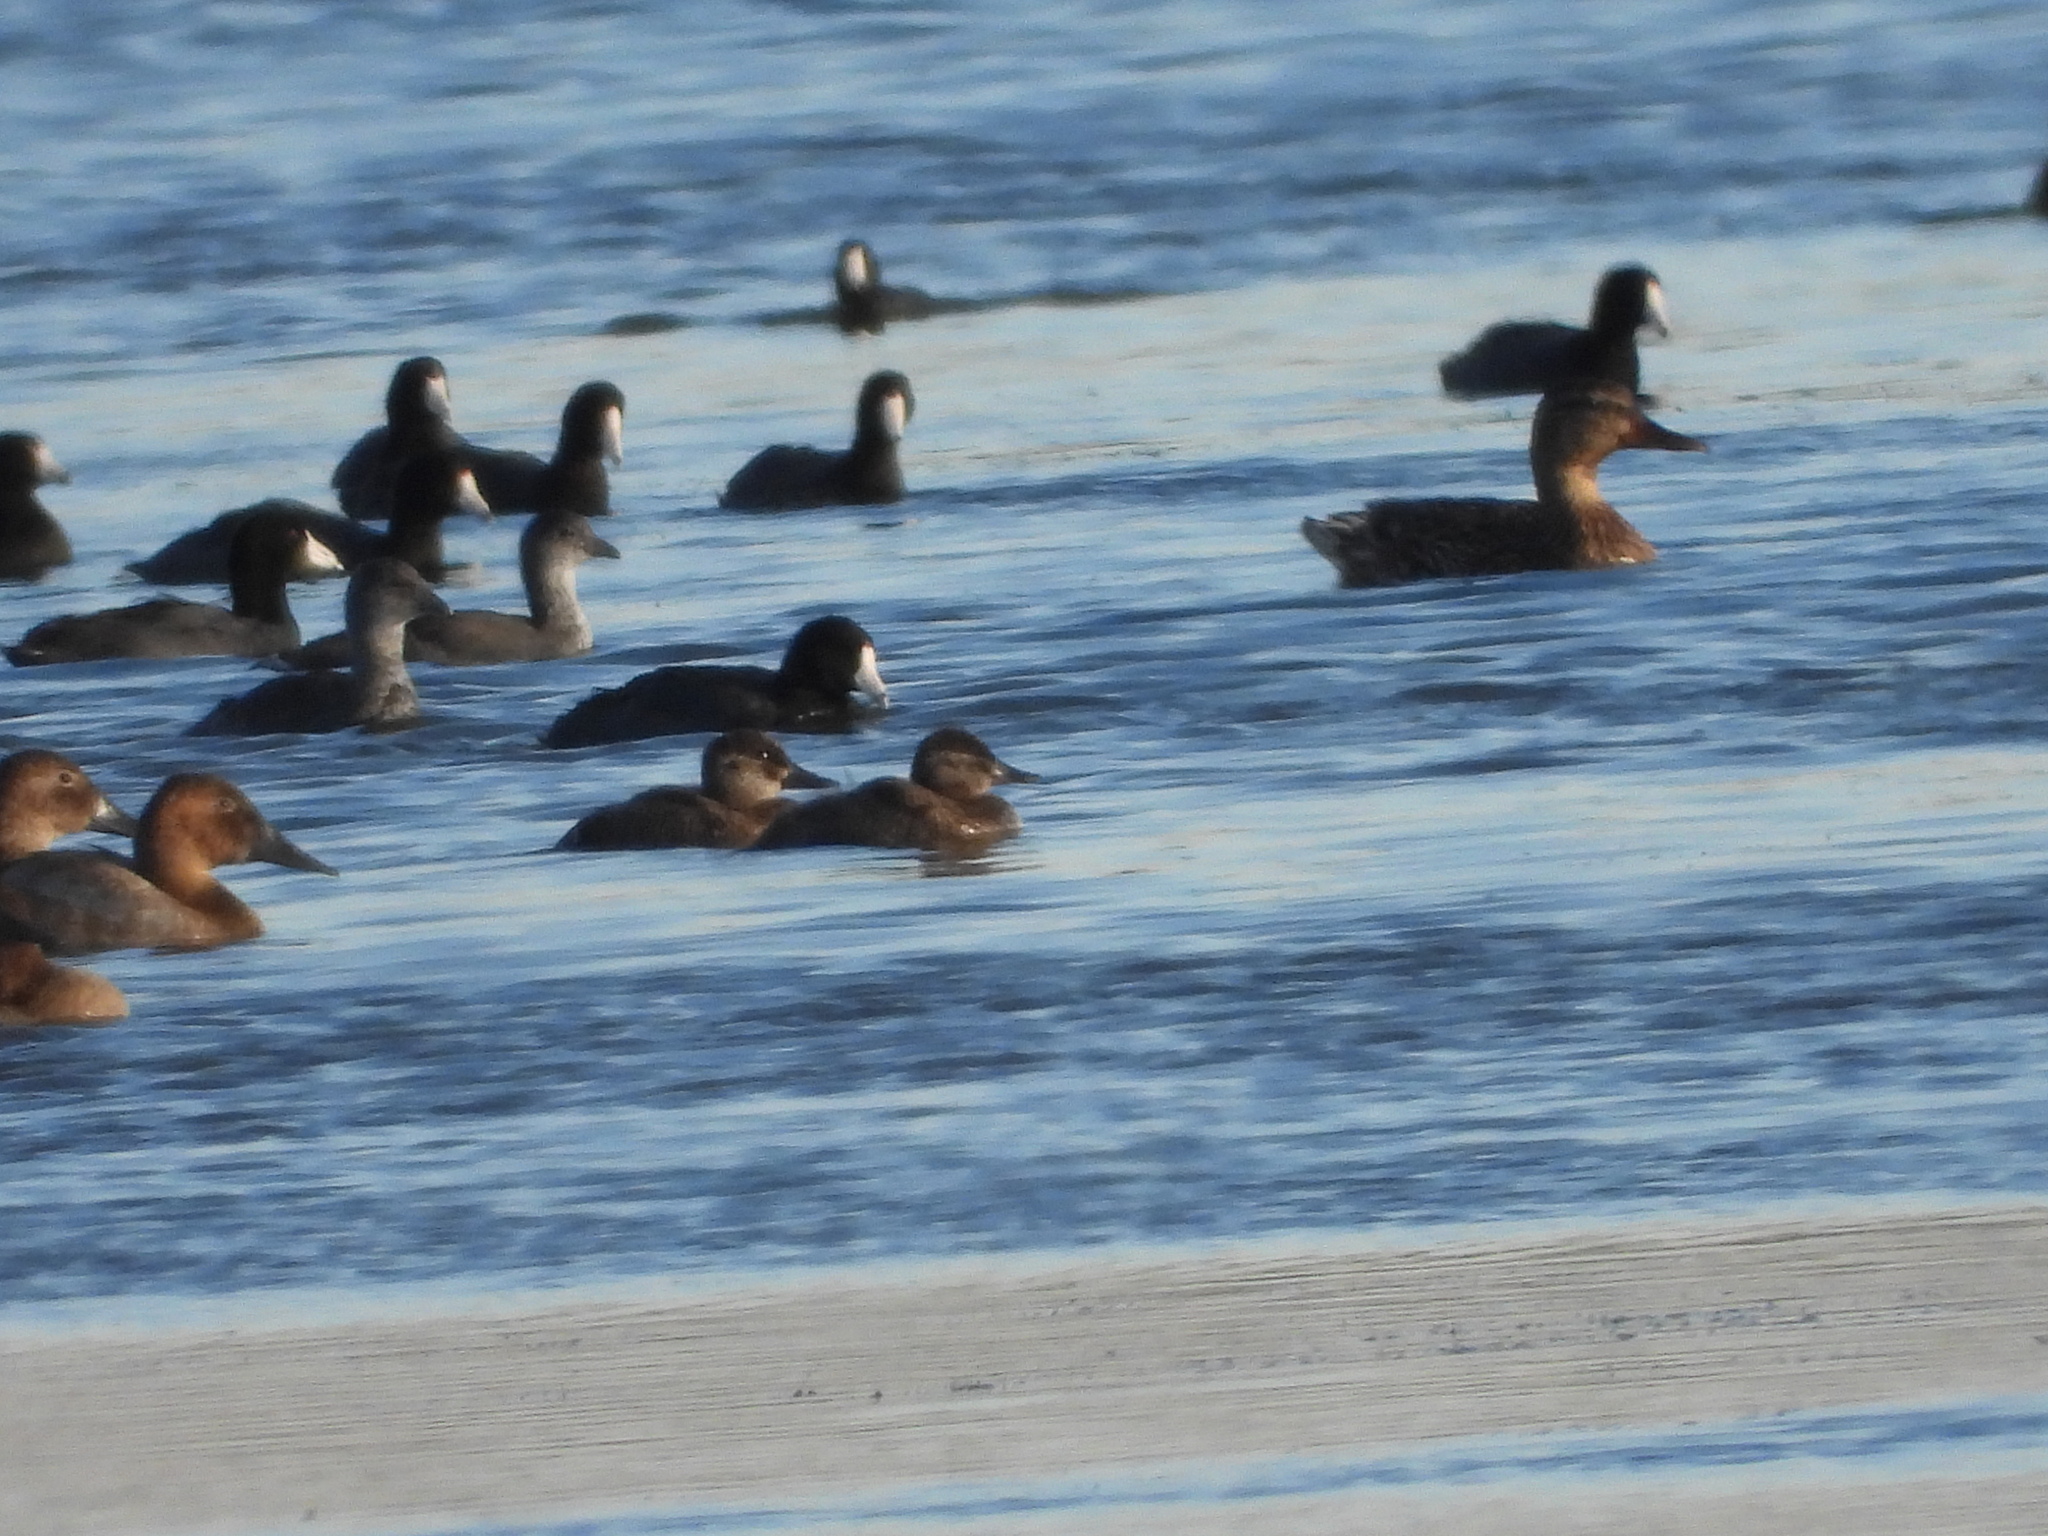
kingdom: Animalia
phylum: Chordata
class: Aves
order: Anseriformes
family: Anatidae
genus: Oxyura
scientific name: Oxyura jamaicensis
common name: Ruddy duck
